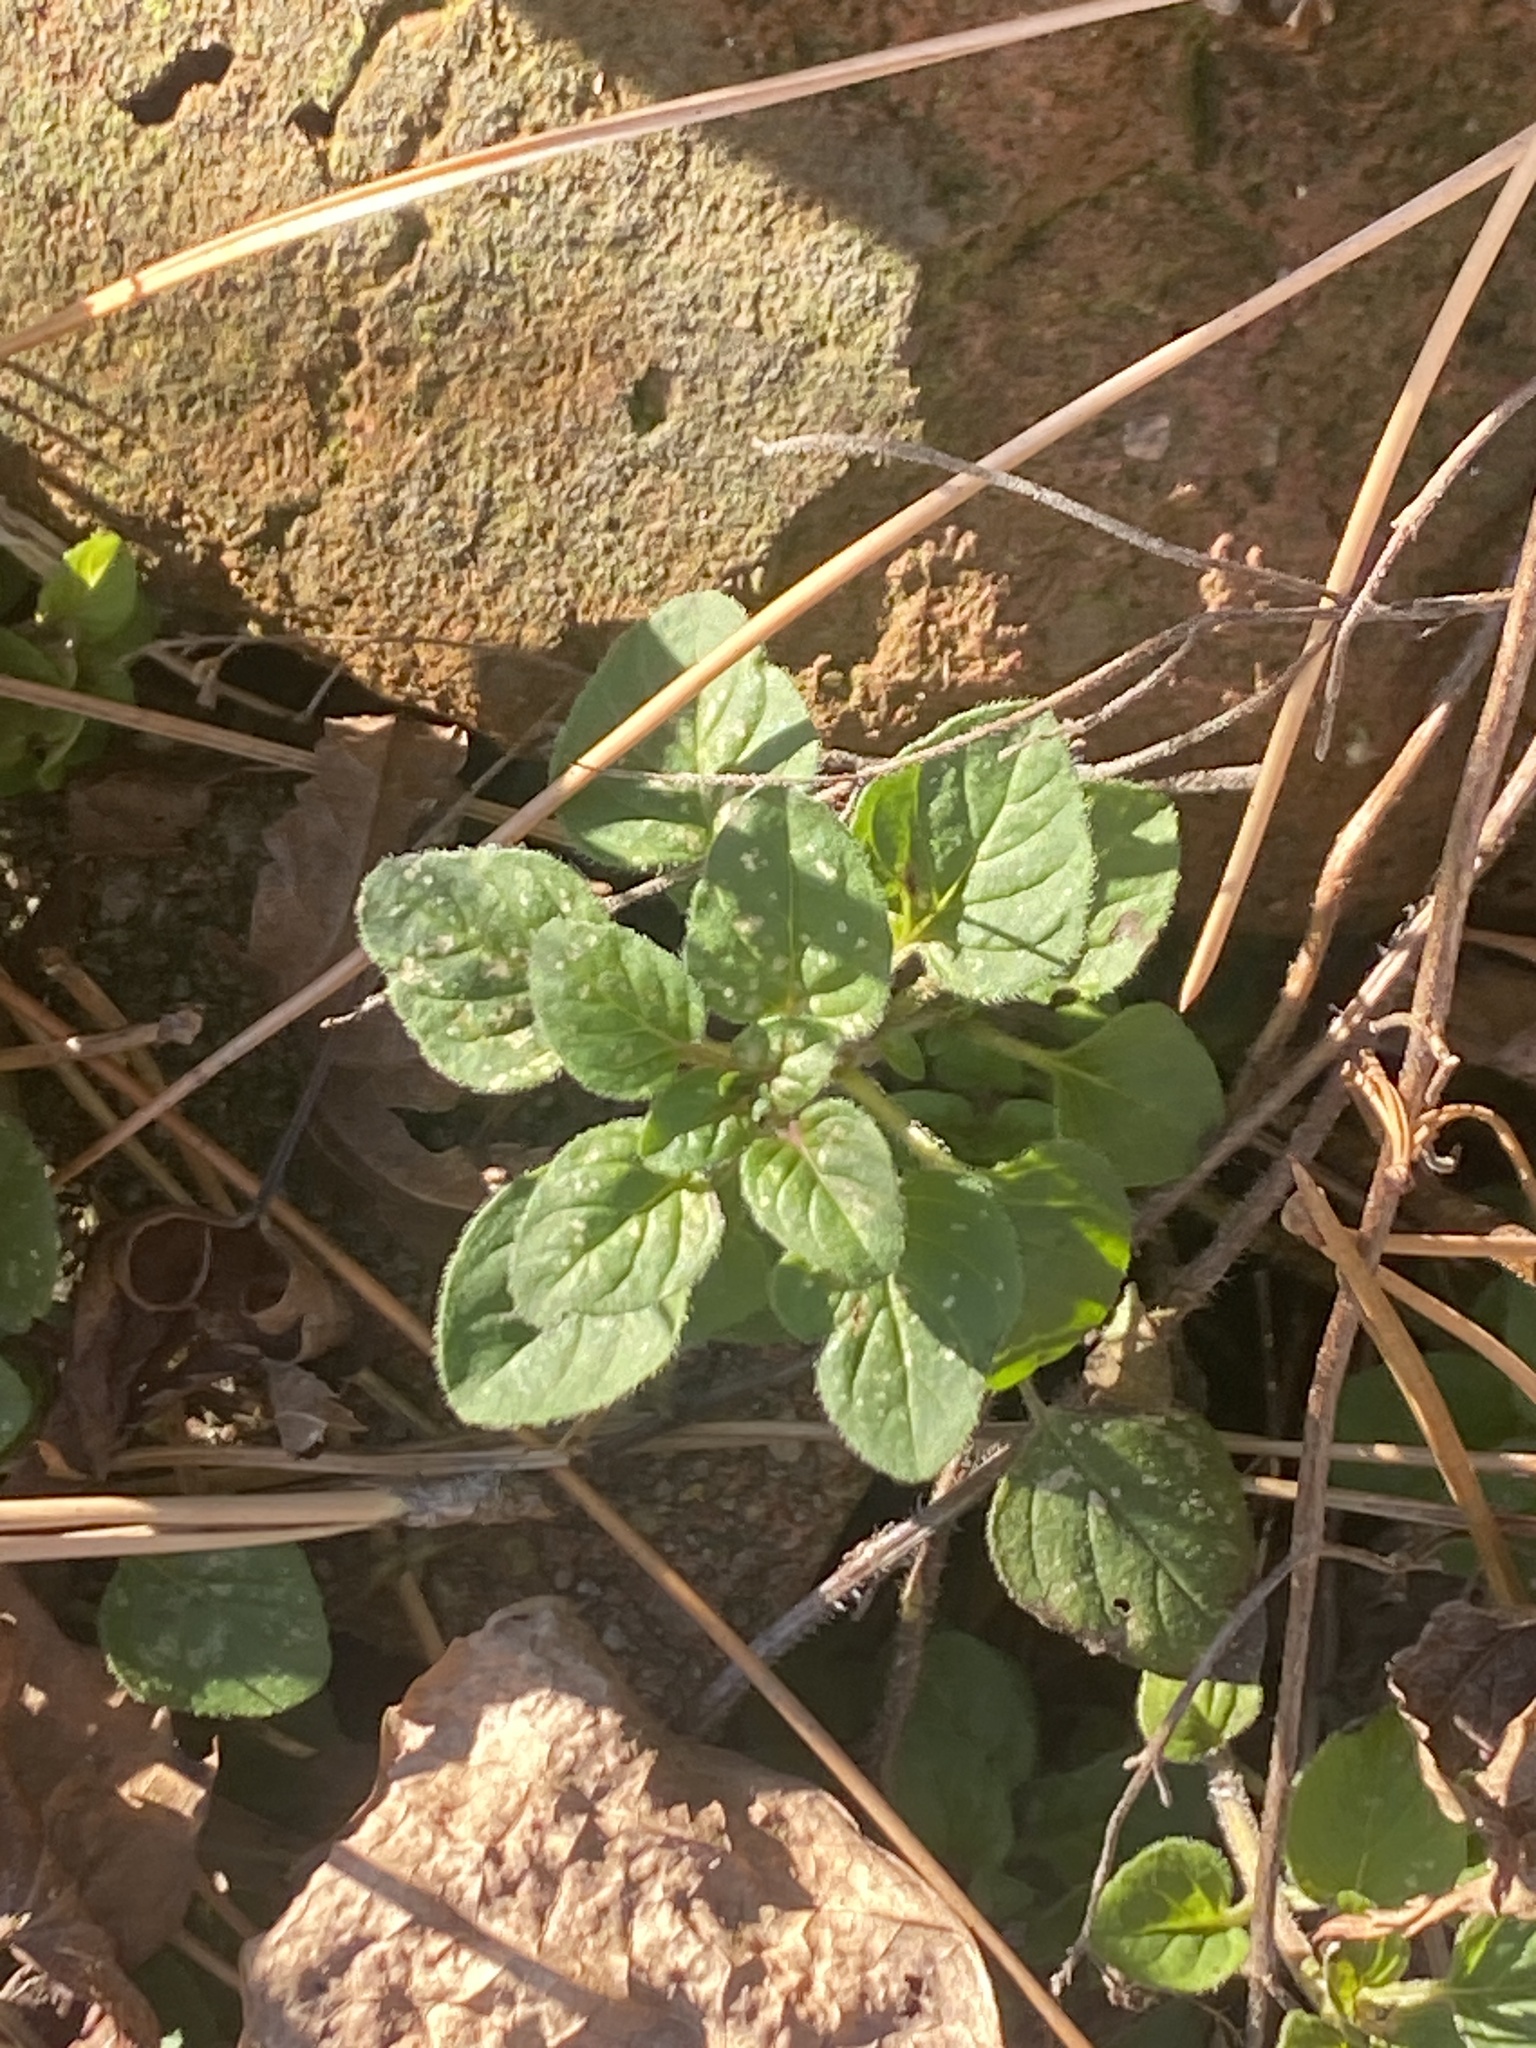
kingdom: Plantae
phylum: Tracheophyta
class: Magnoliopsida
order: Lamiales
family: Lamiaceae
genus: Origanum
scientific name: Origanum vulgare
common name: Wild marjoram
